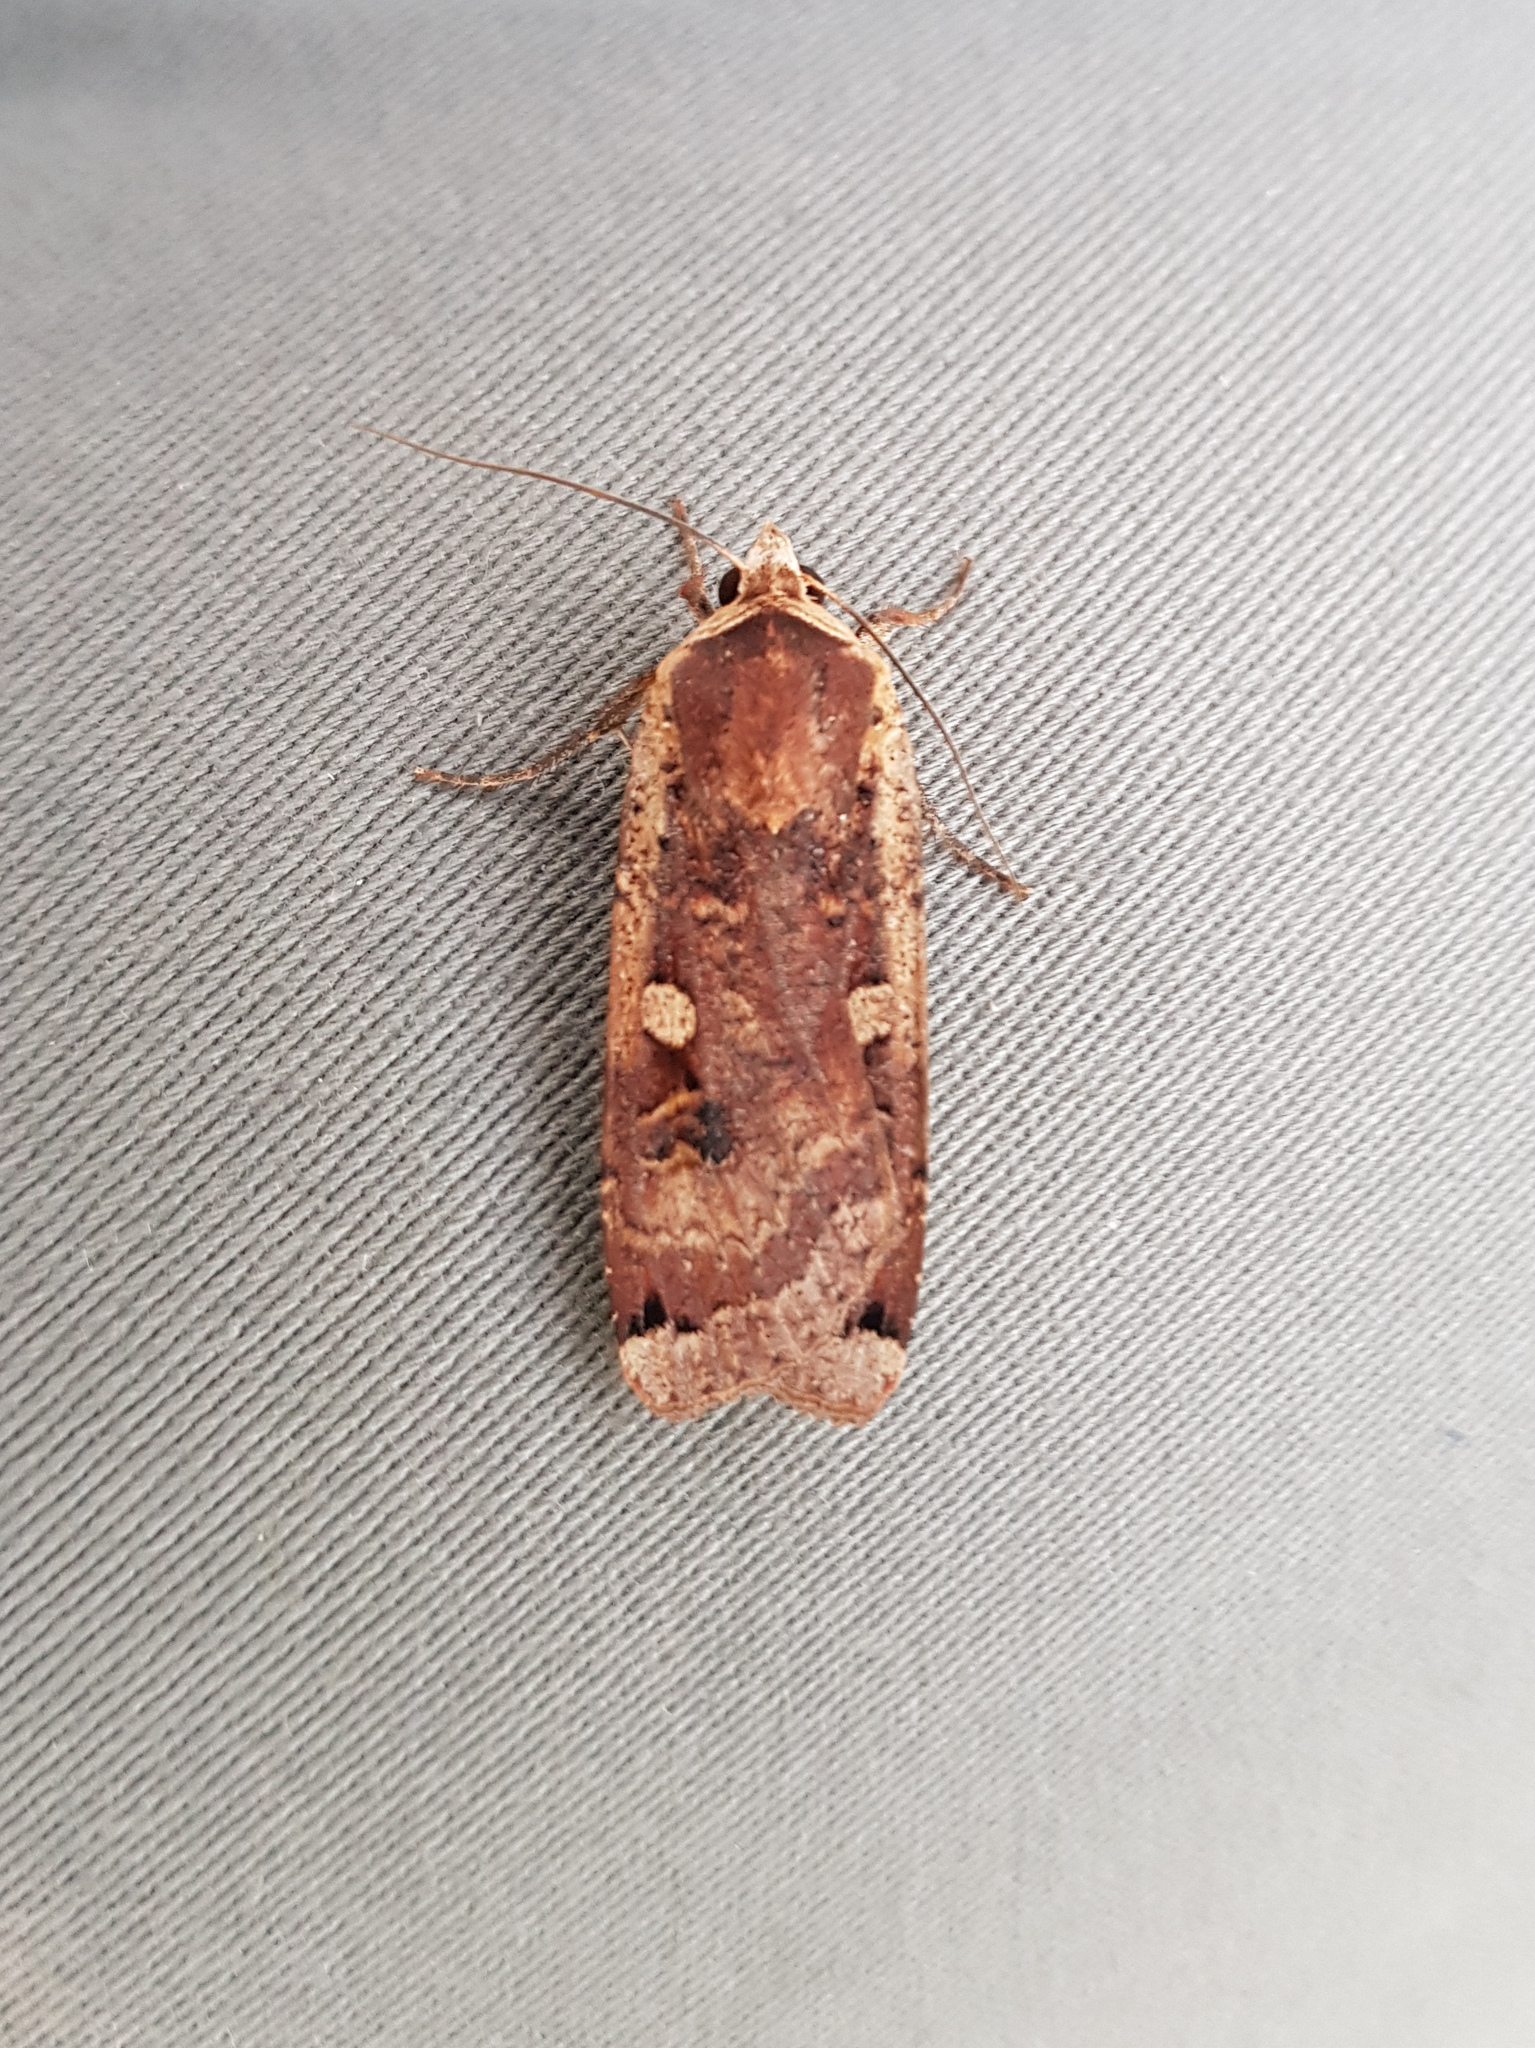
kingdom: Animalia
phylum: Arthropoda
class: Insecta
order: Lepidoptera
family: Noctuidae
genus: Noctua
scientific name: Noctua pronuba
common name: Large yellow underwing
